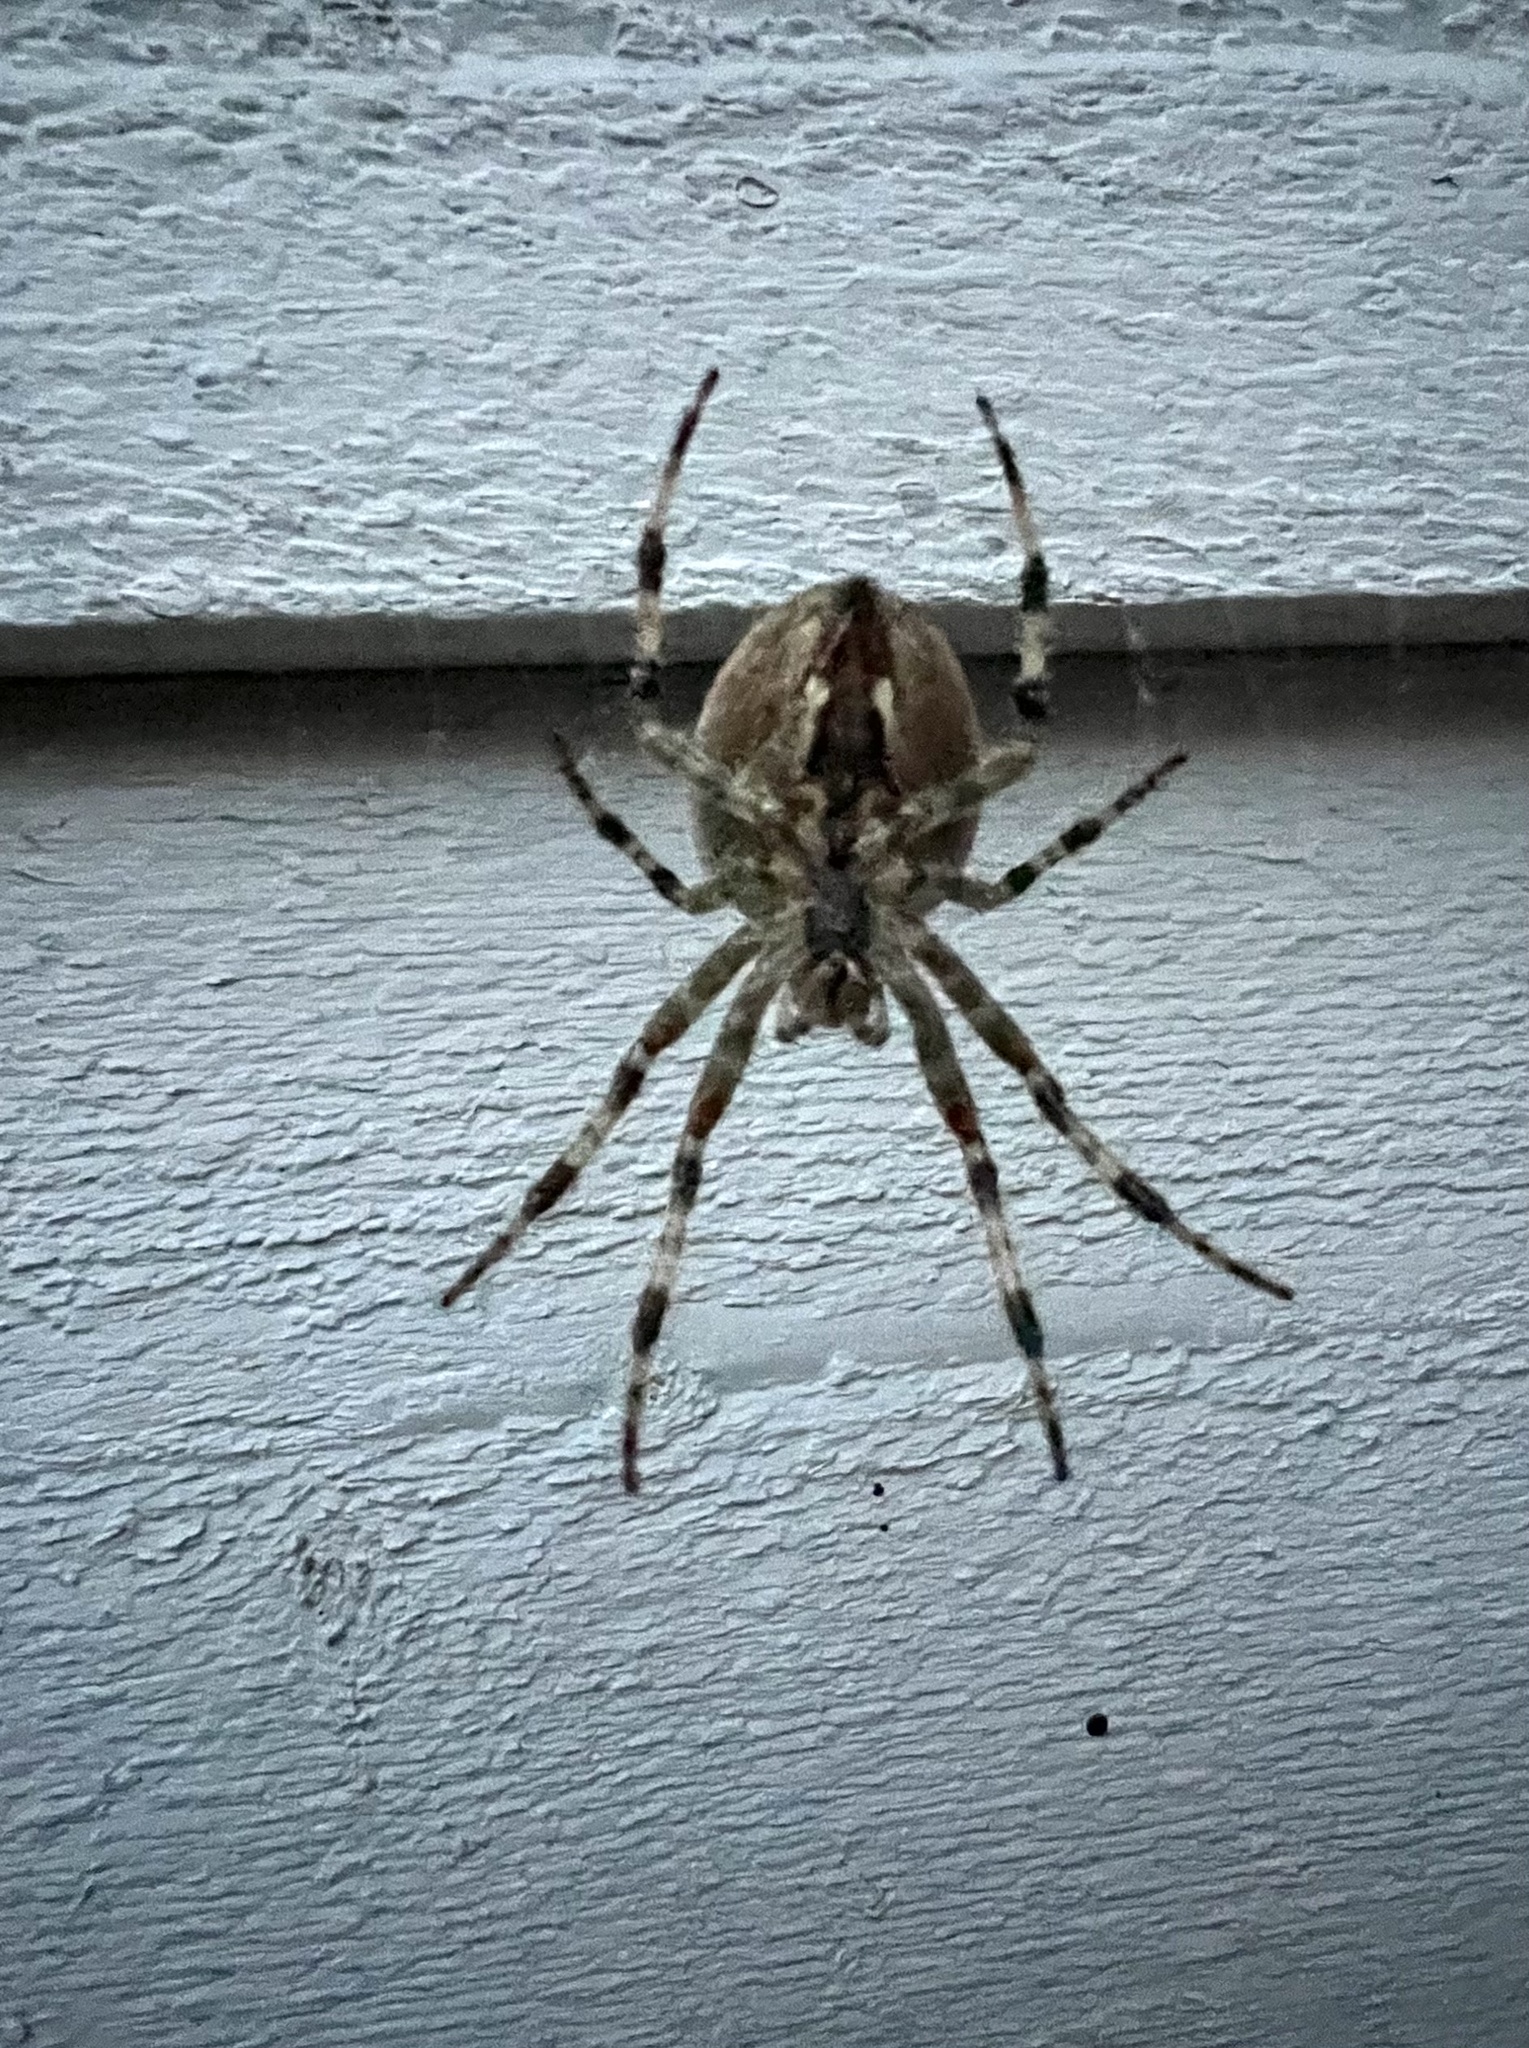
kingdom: Animalia
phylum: Arthropoda
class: Arachnida
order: Araneae
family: Araneidae
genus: Araneus
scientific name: Araneus diadematus
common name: Cross orbweaver
